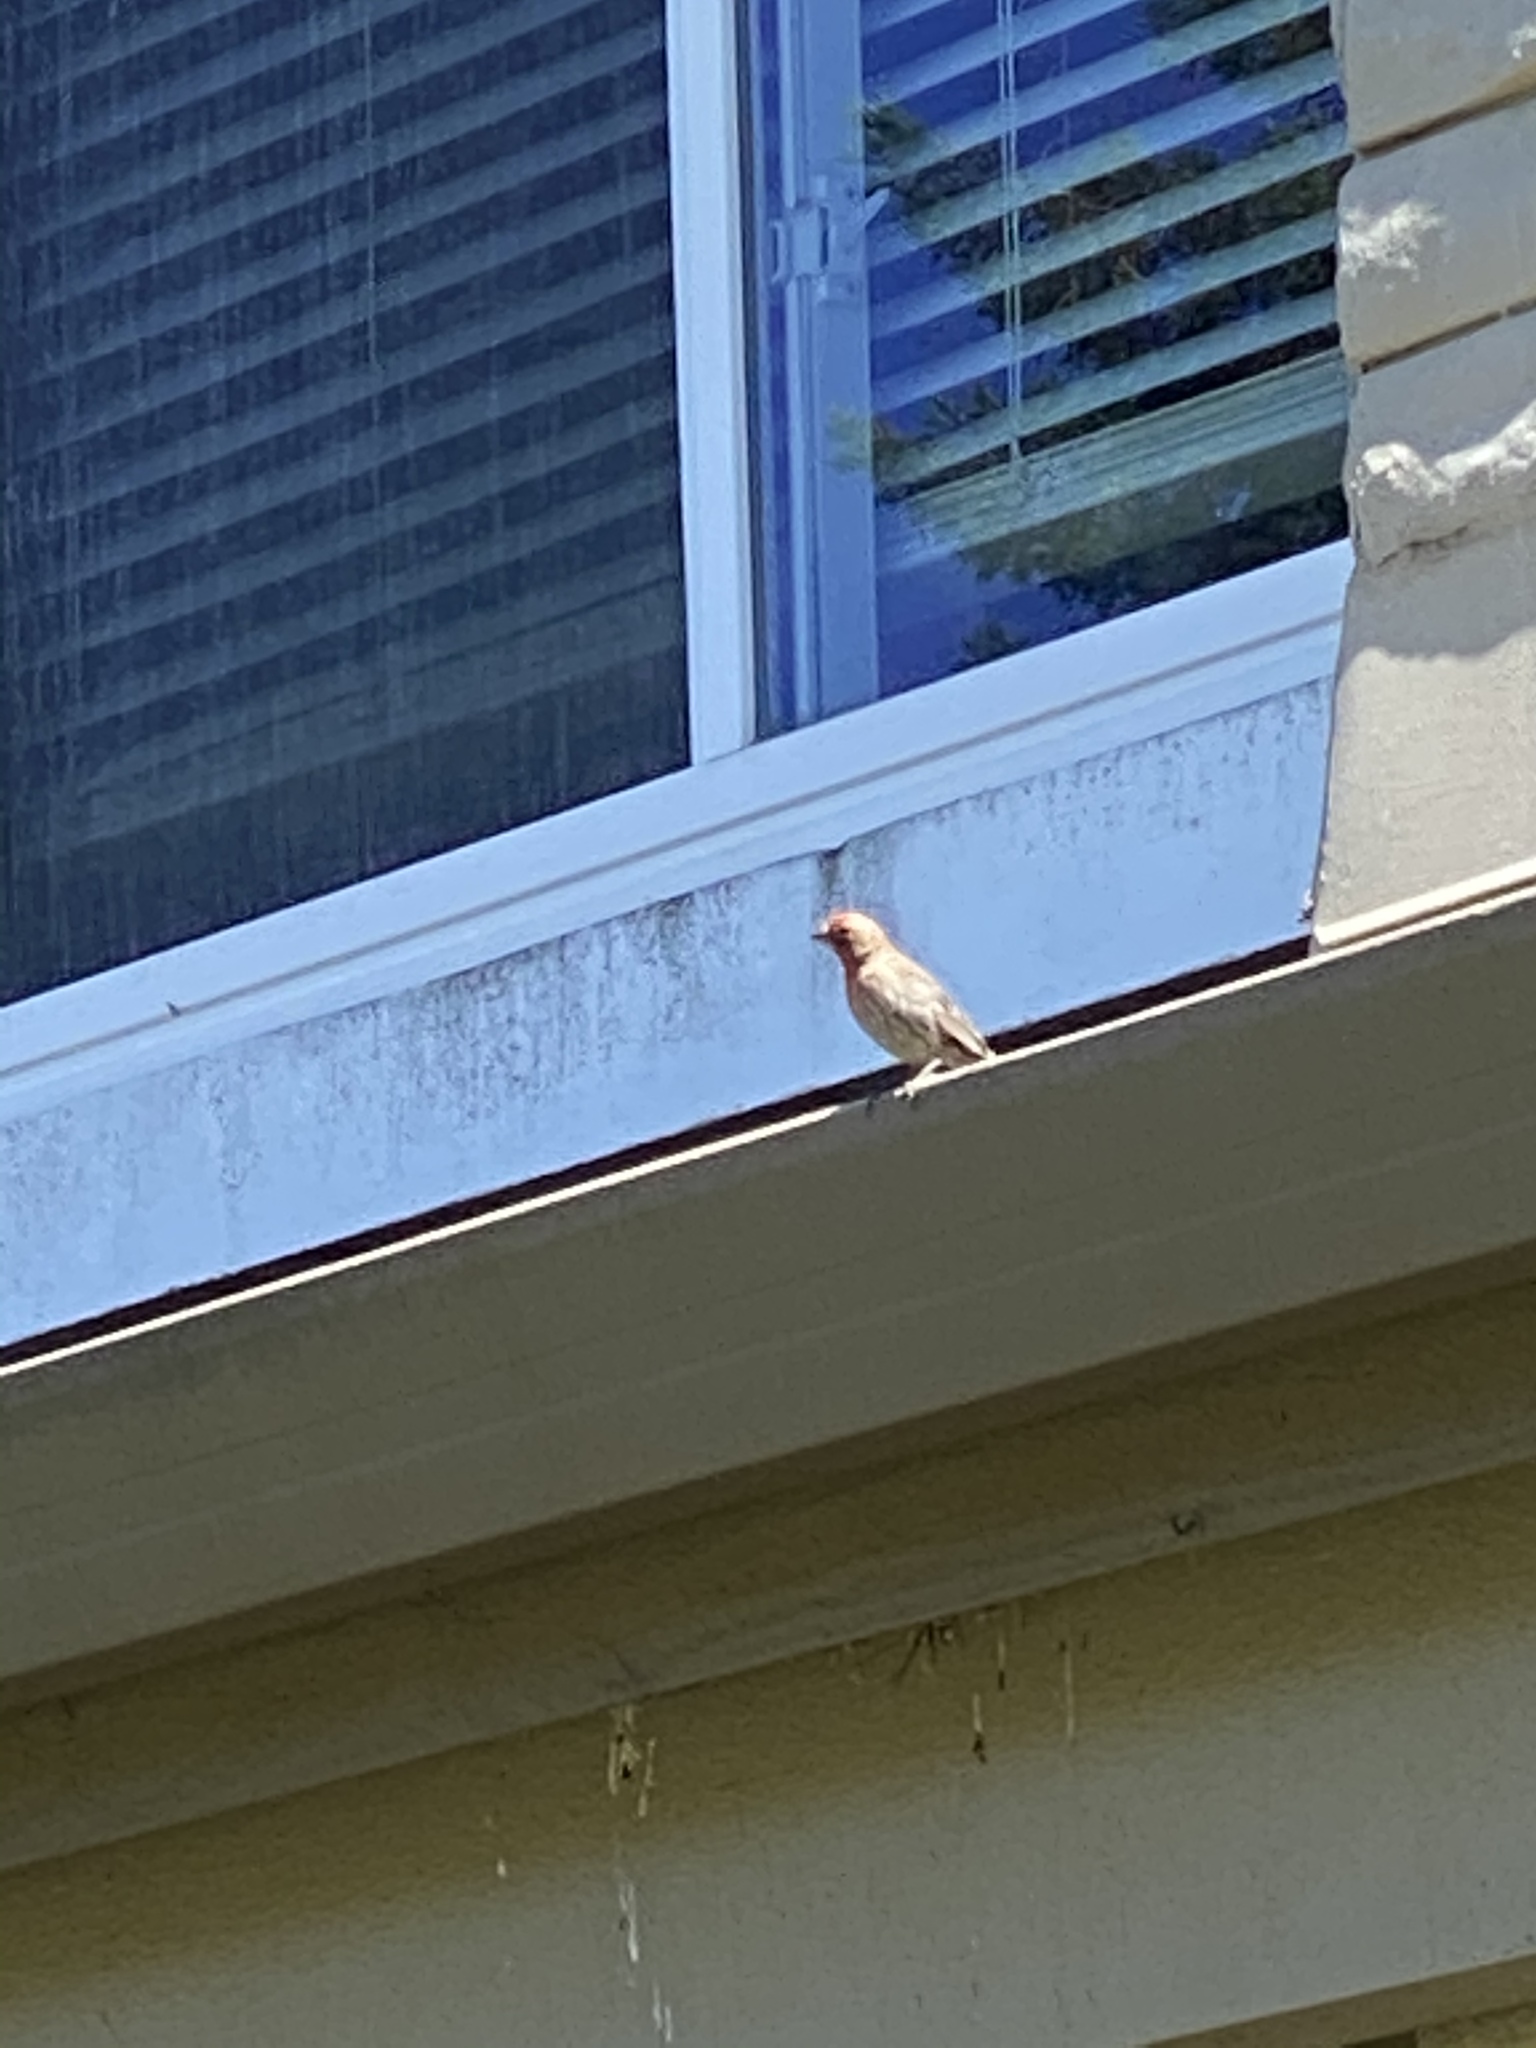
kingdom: Animalia
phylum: Chordata
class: Aves
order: Passeriformes
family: Fringillidae
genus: Haemorhous
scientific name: Haemorhous mexicanus
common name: House finch
